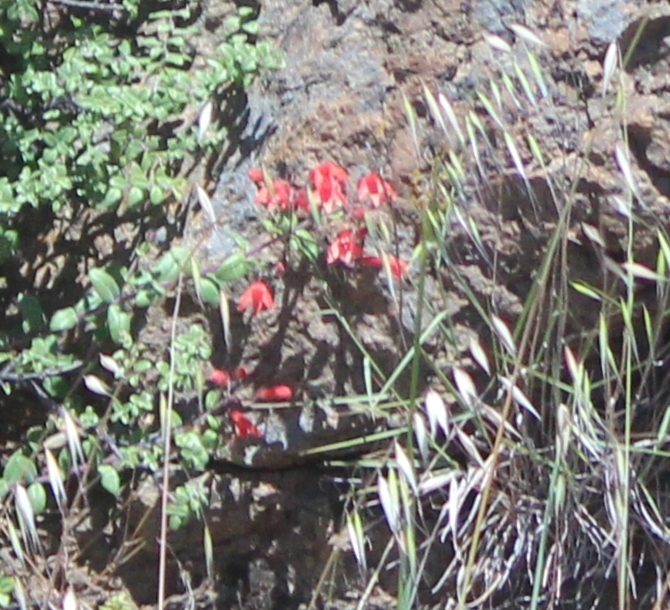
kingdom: Plantae
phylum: Tracheophyta
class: Magnoliopsida
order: Lamiales
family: Plantaginaceae
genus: Keckiella
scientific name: Keckiella corymbosa
